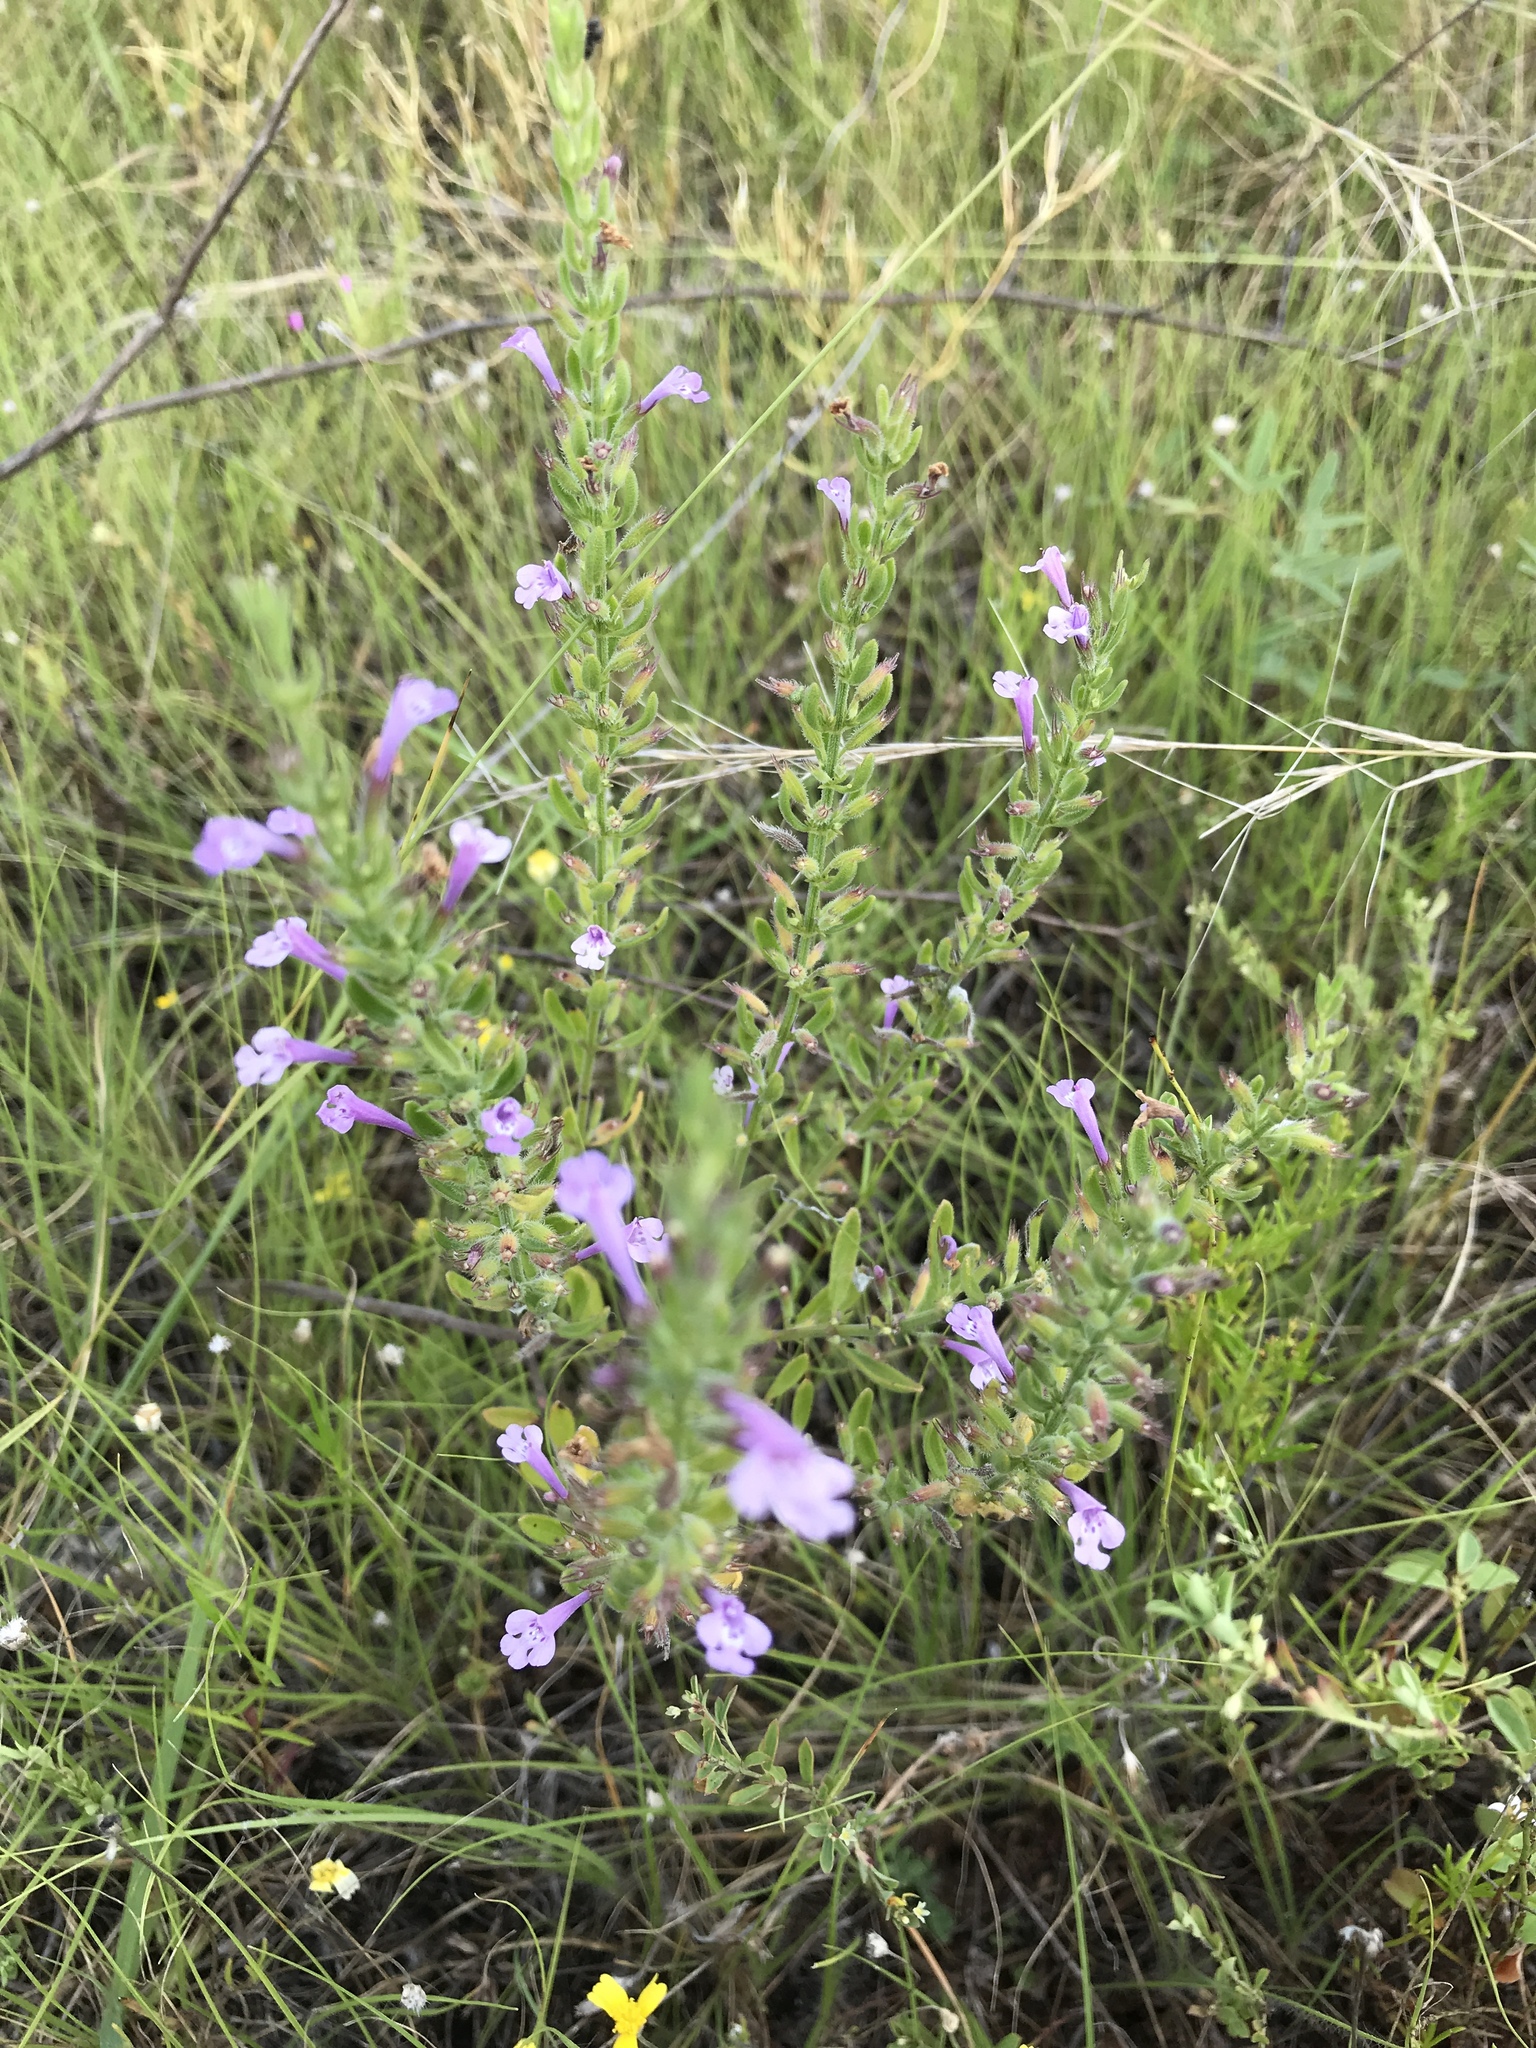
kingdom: Plantae
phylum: Tracheophyta
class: Magnoliopsida
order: Lamiales
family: Lamiaceae
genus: Hedeoma
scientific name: Hedeoma reverchonii
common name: Reverchon's false penny-royal
